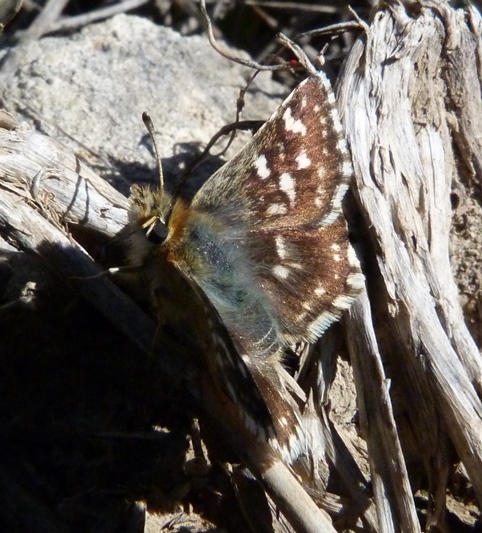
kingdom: Animalia
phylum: Arthropoda
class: Insecta
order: Lepidoptera
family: Hesperiidae
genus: Spialia
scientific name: Spialia sertorius
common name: Red underwing skipper
